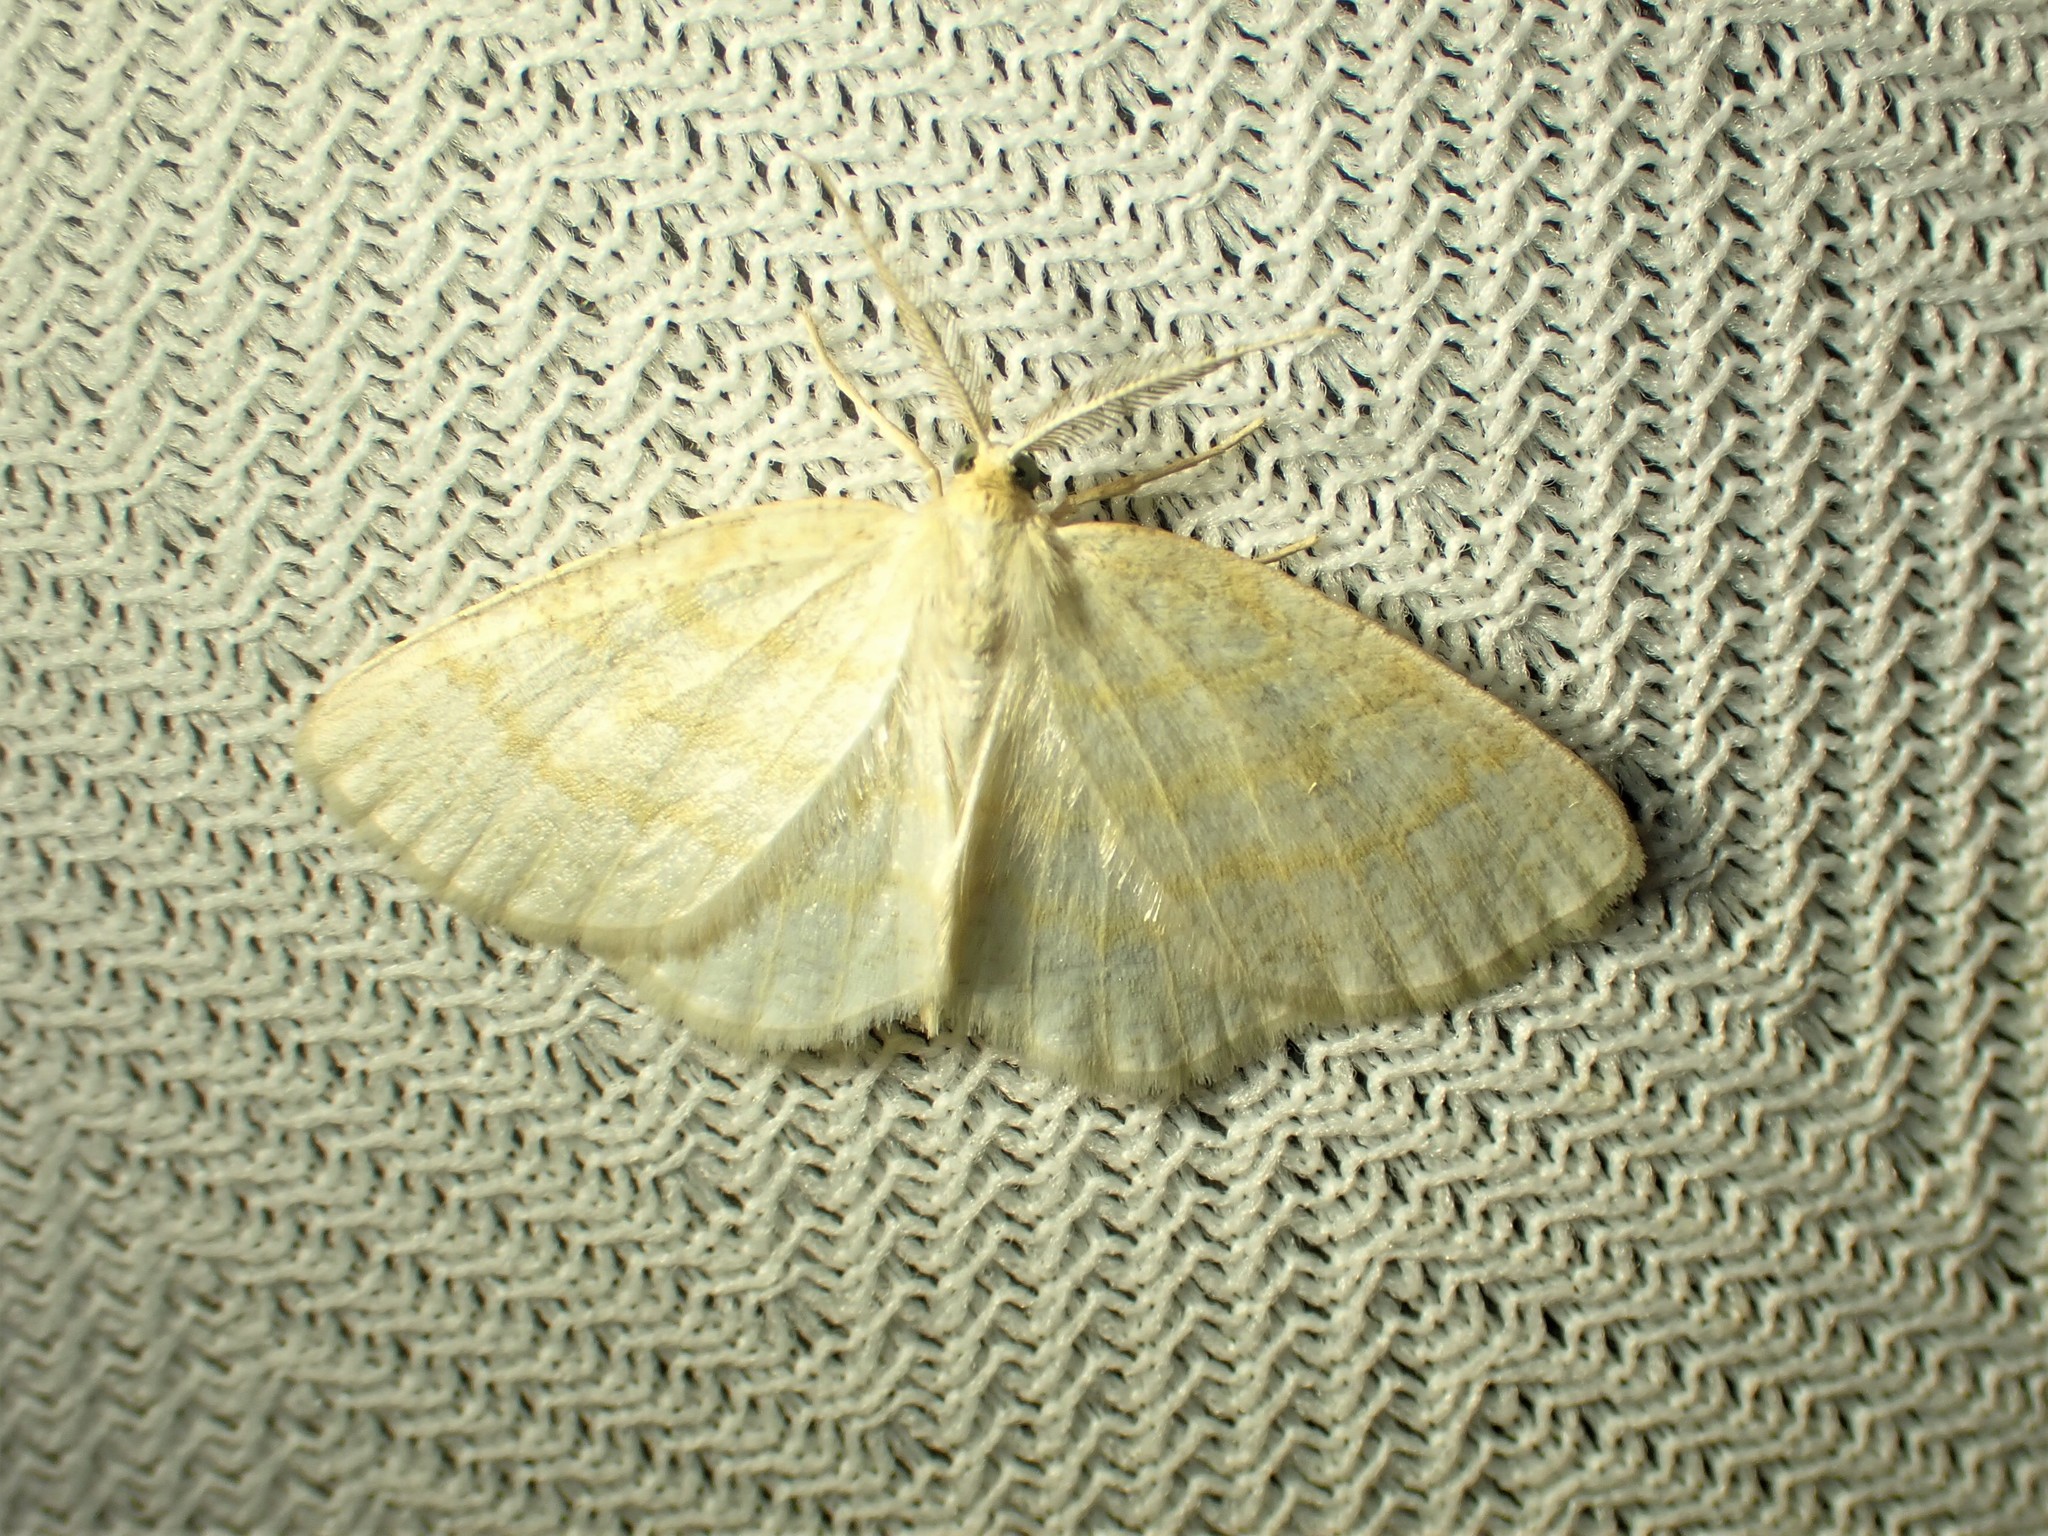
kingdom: Animalia
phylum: Arthropoda
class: Insecta
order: Lepidoptera
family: Geometridae
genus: Cabera
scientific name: Cabera erythemaria
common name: Yellow-dusted cream moth
